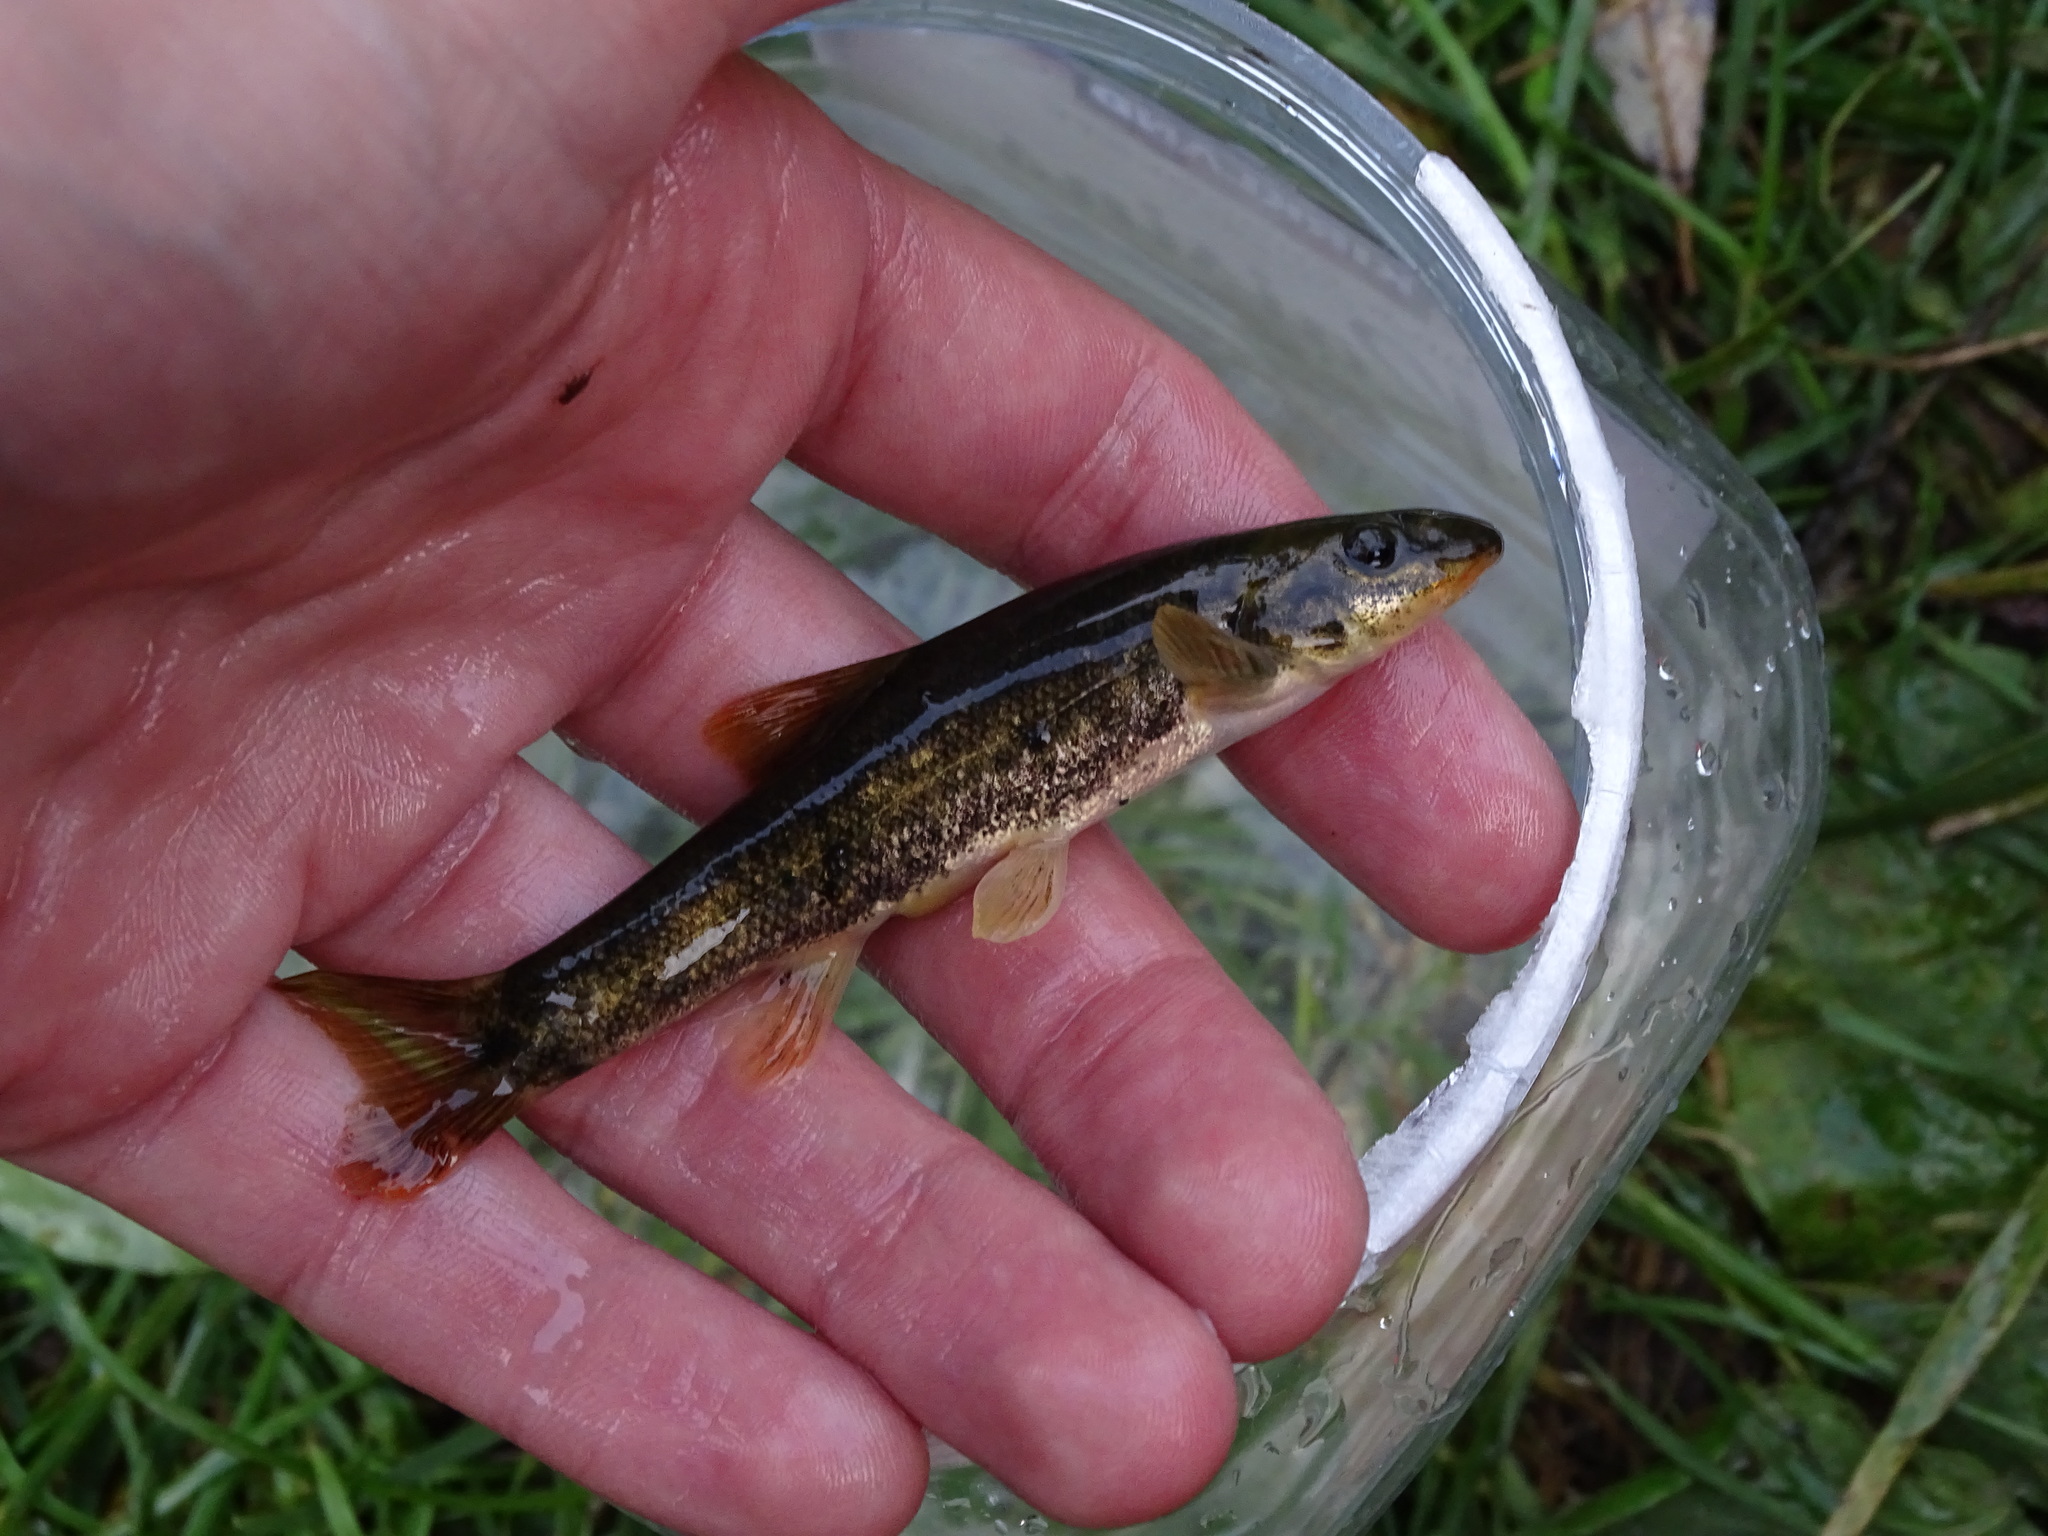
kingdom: Animalia
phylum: Chordata
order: Cypriniformes
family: Cyprinidae
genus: Rhinichthys
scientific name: Rhinichthys cataractae
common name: Longnose dace
